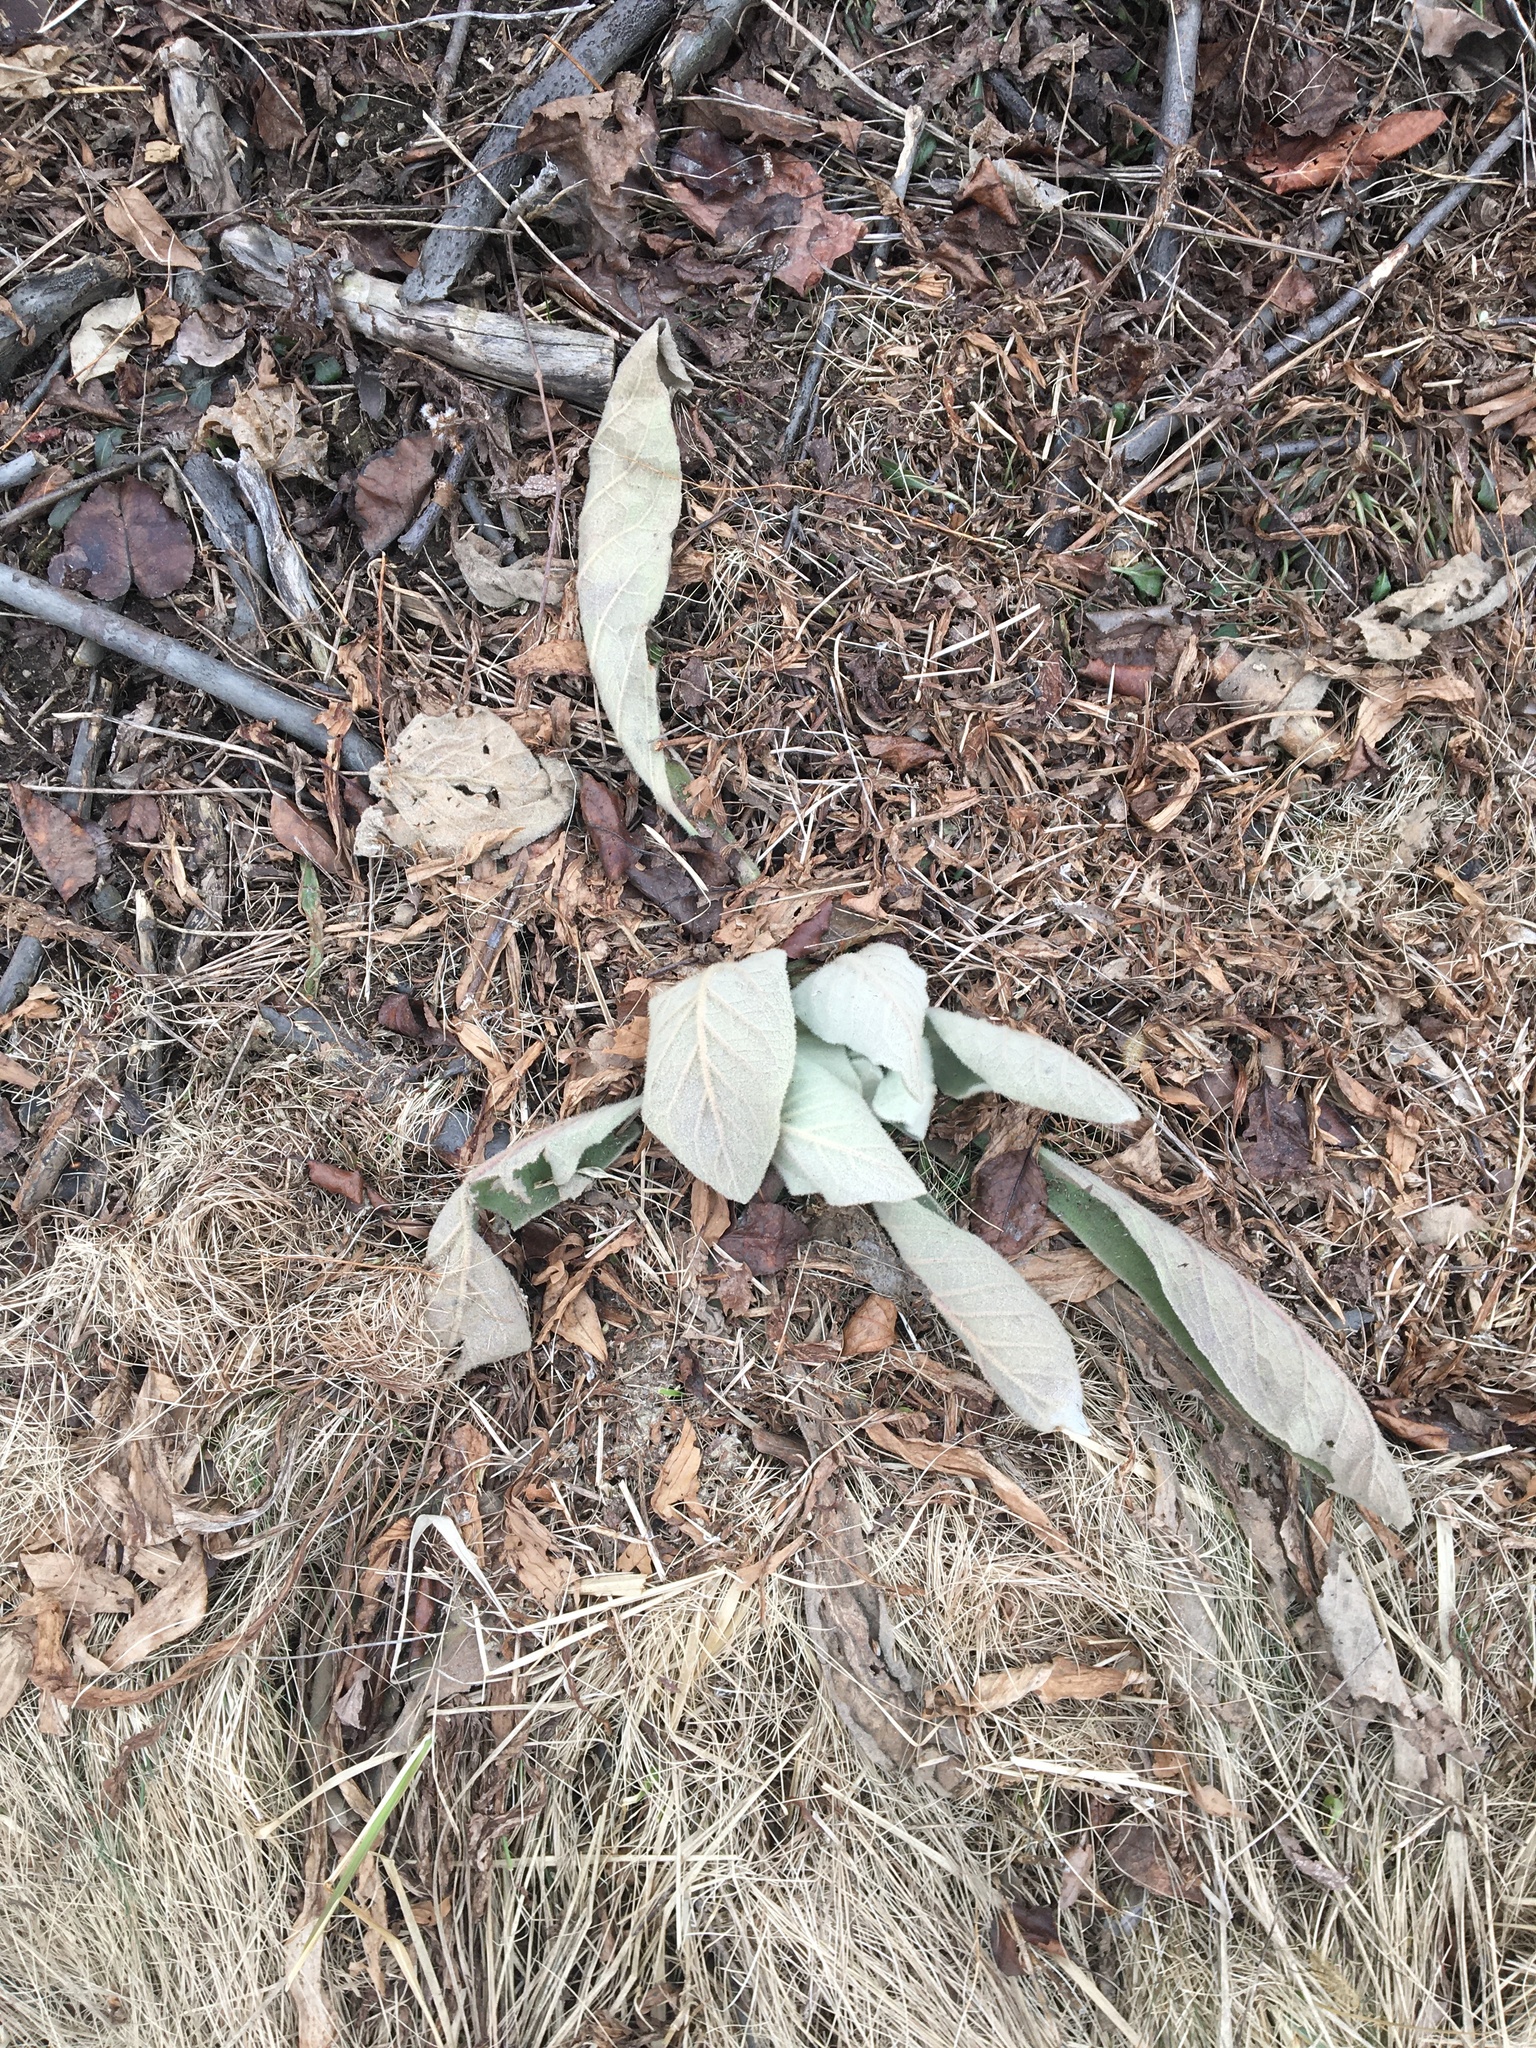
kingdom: Plantae
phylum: Tracheophyta
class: Magnoliopsida
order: Lamiales
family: Scrophulariaceae
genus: Verbascum
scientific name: Verbascum thapsus
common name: Common mullein
